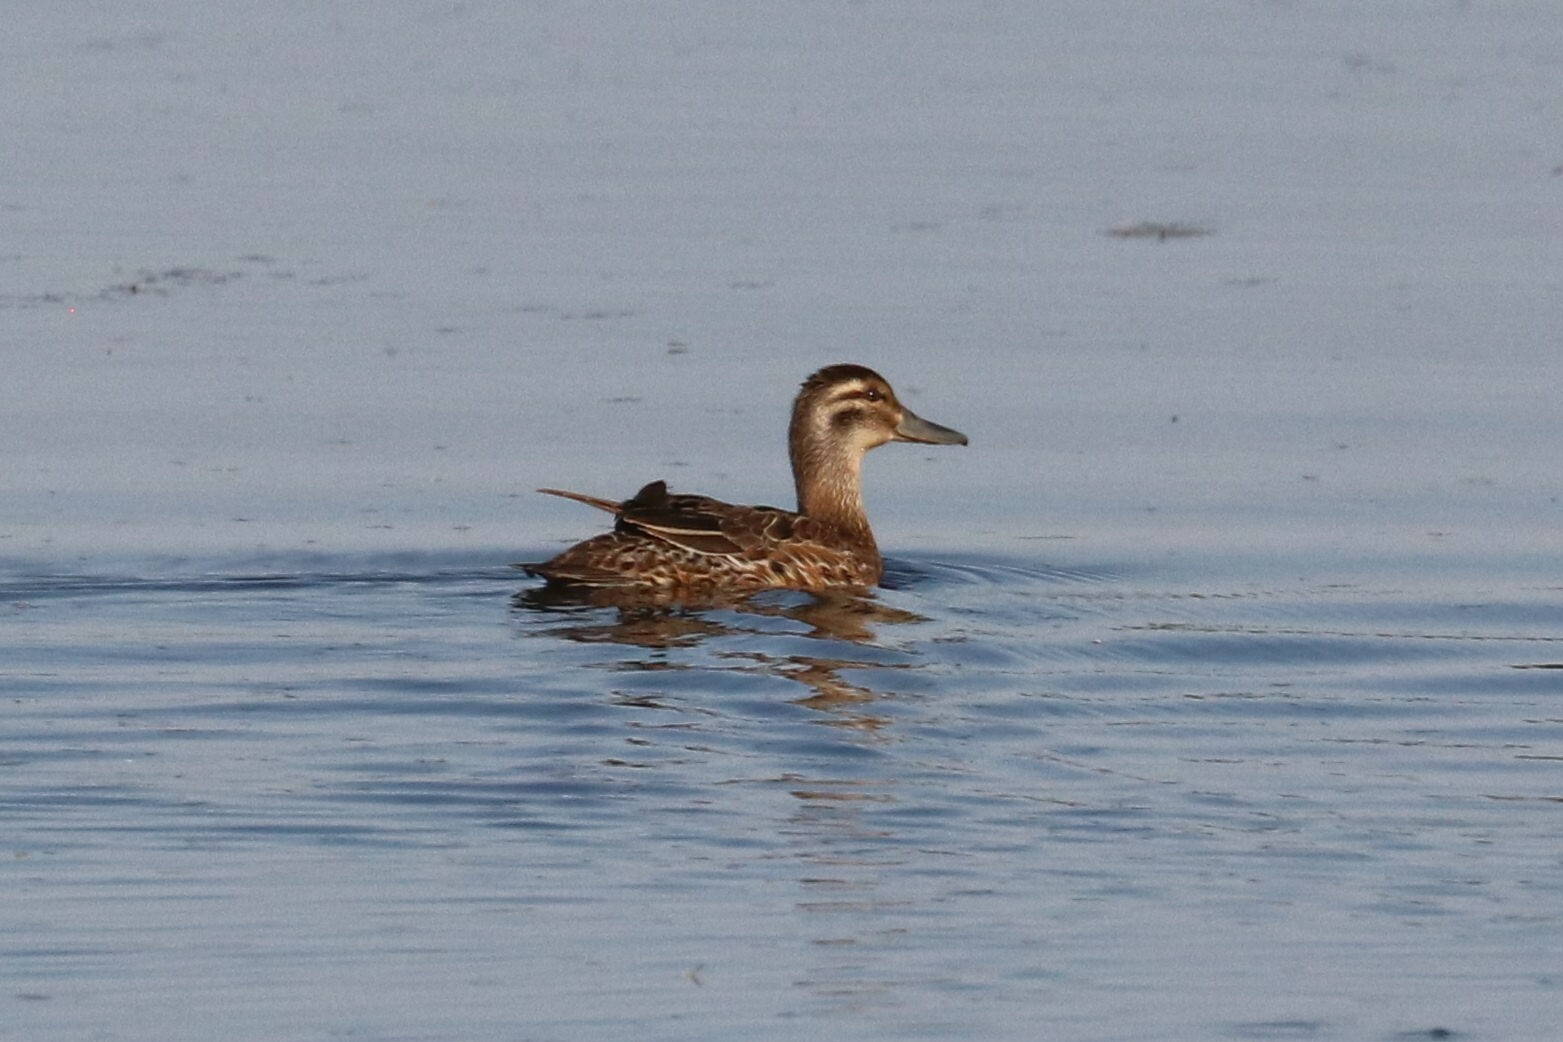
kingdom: Animalia
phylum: Chordata
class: Aves
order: Anseriformes
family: Anatidae
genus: Spatula
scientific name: Spatula querquedula
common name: Garganey
